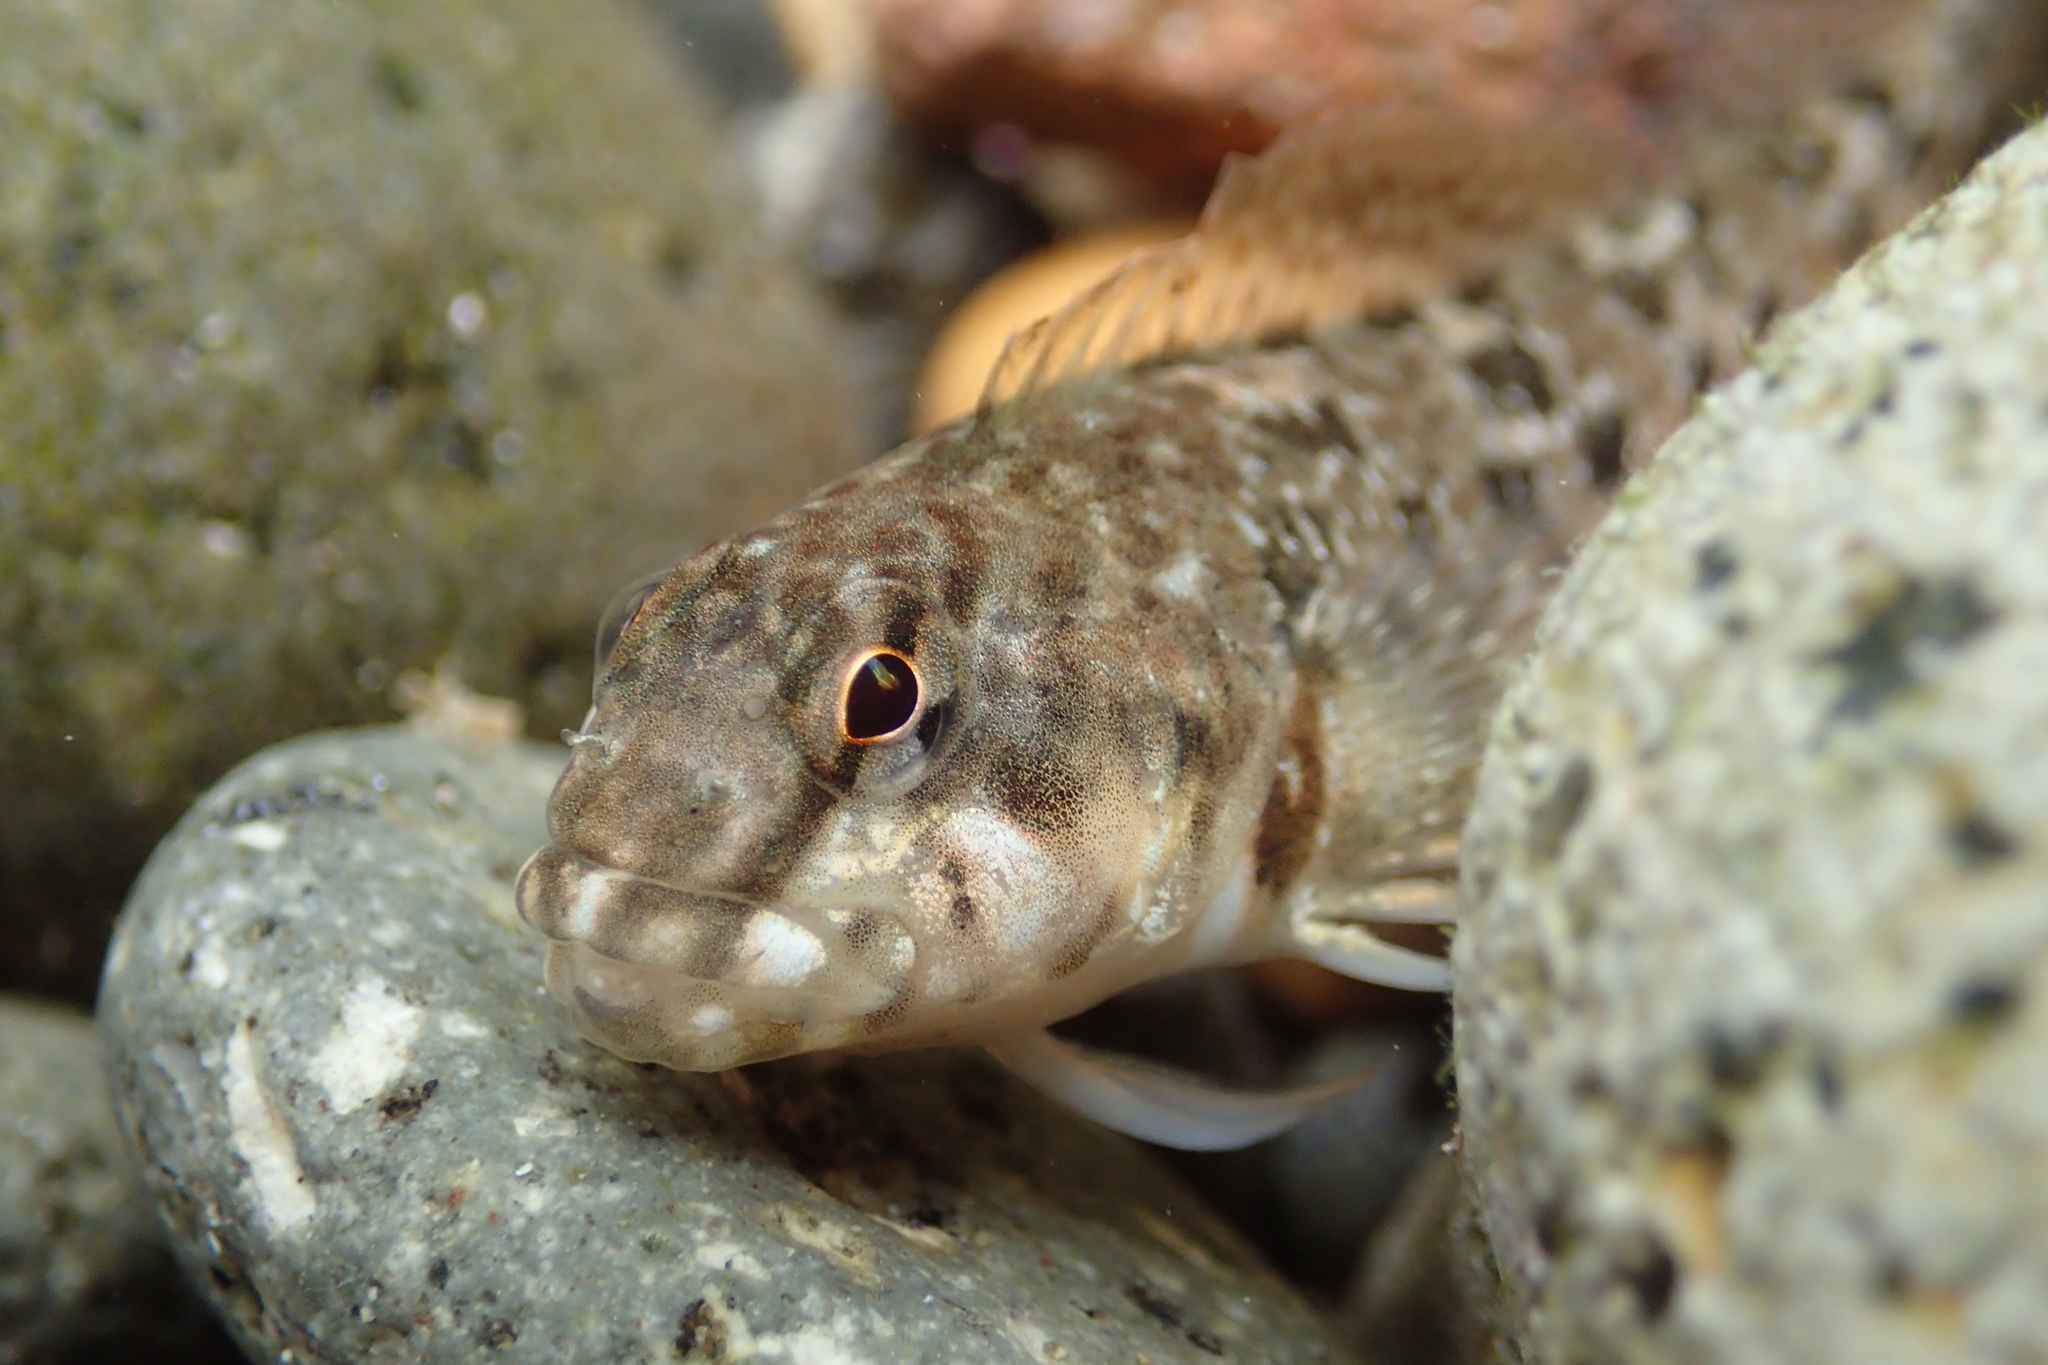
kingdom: Animalia
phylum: Chordata
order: Perciformes
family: Tripterygiidae
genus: Bellapiscis
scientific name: Bellapiscis medius
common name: Twister
